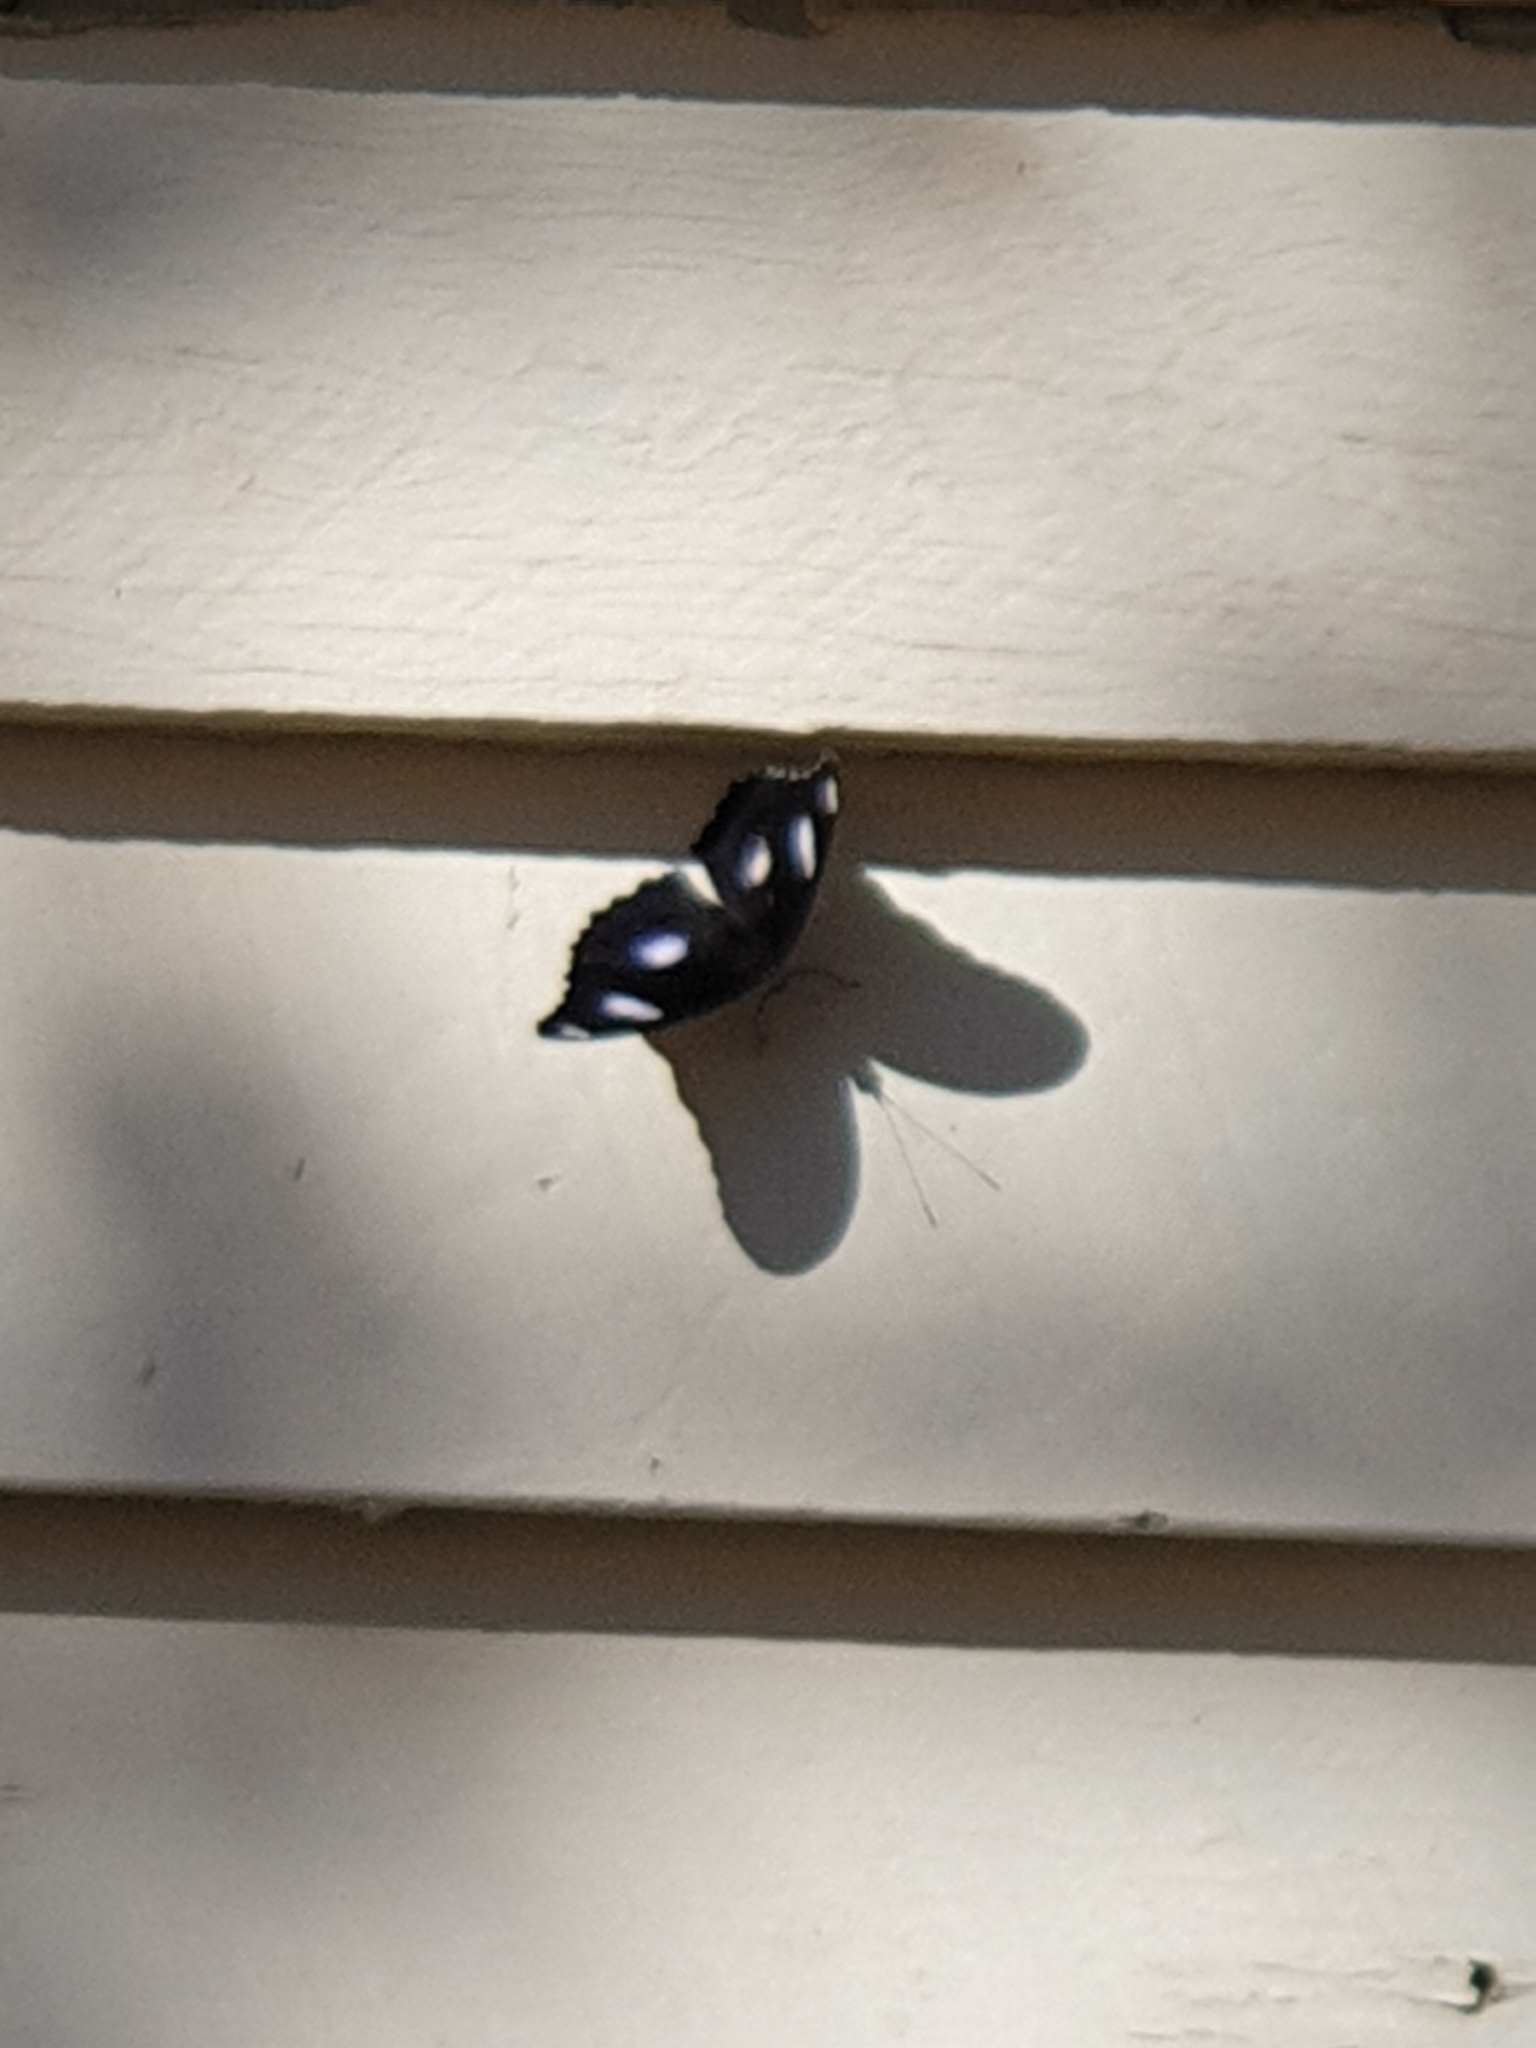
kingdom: Animalia
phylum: Arthropoda
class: Insecta
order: Lepidoptera
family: Nymphalidae
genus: Hypolimnas
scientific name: Hypolimnas bolina
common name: Great eggfly
